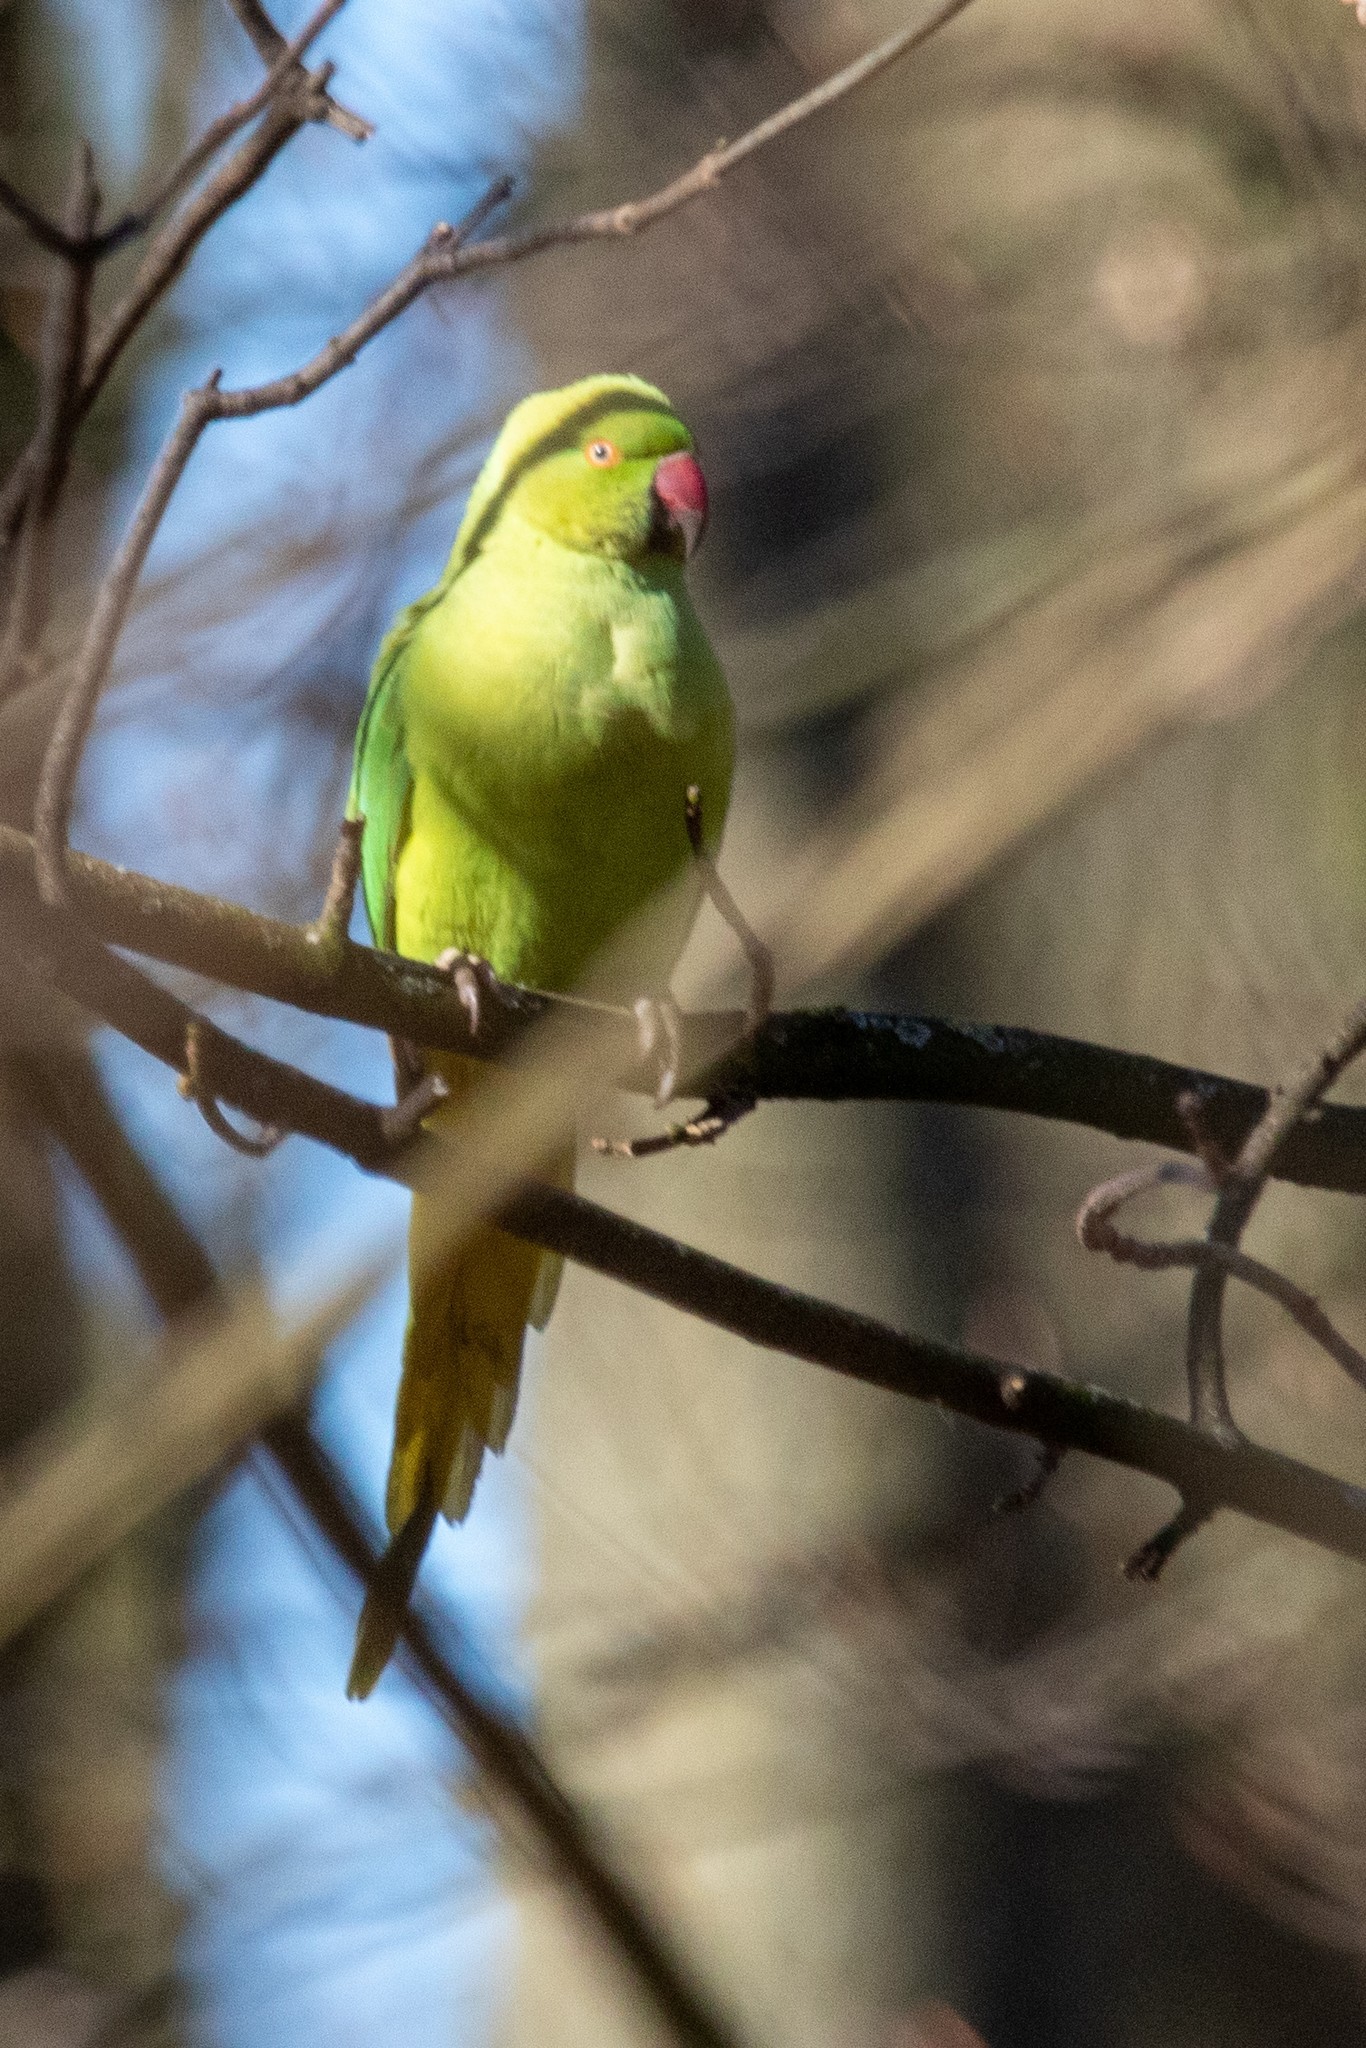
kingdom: Animalia
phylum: Chordata
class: Aves
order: Psittaciformes
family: Psittacidae
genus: Psittacula
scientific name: Psittacula krameri
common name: Rose-ringed parakeet
